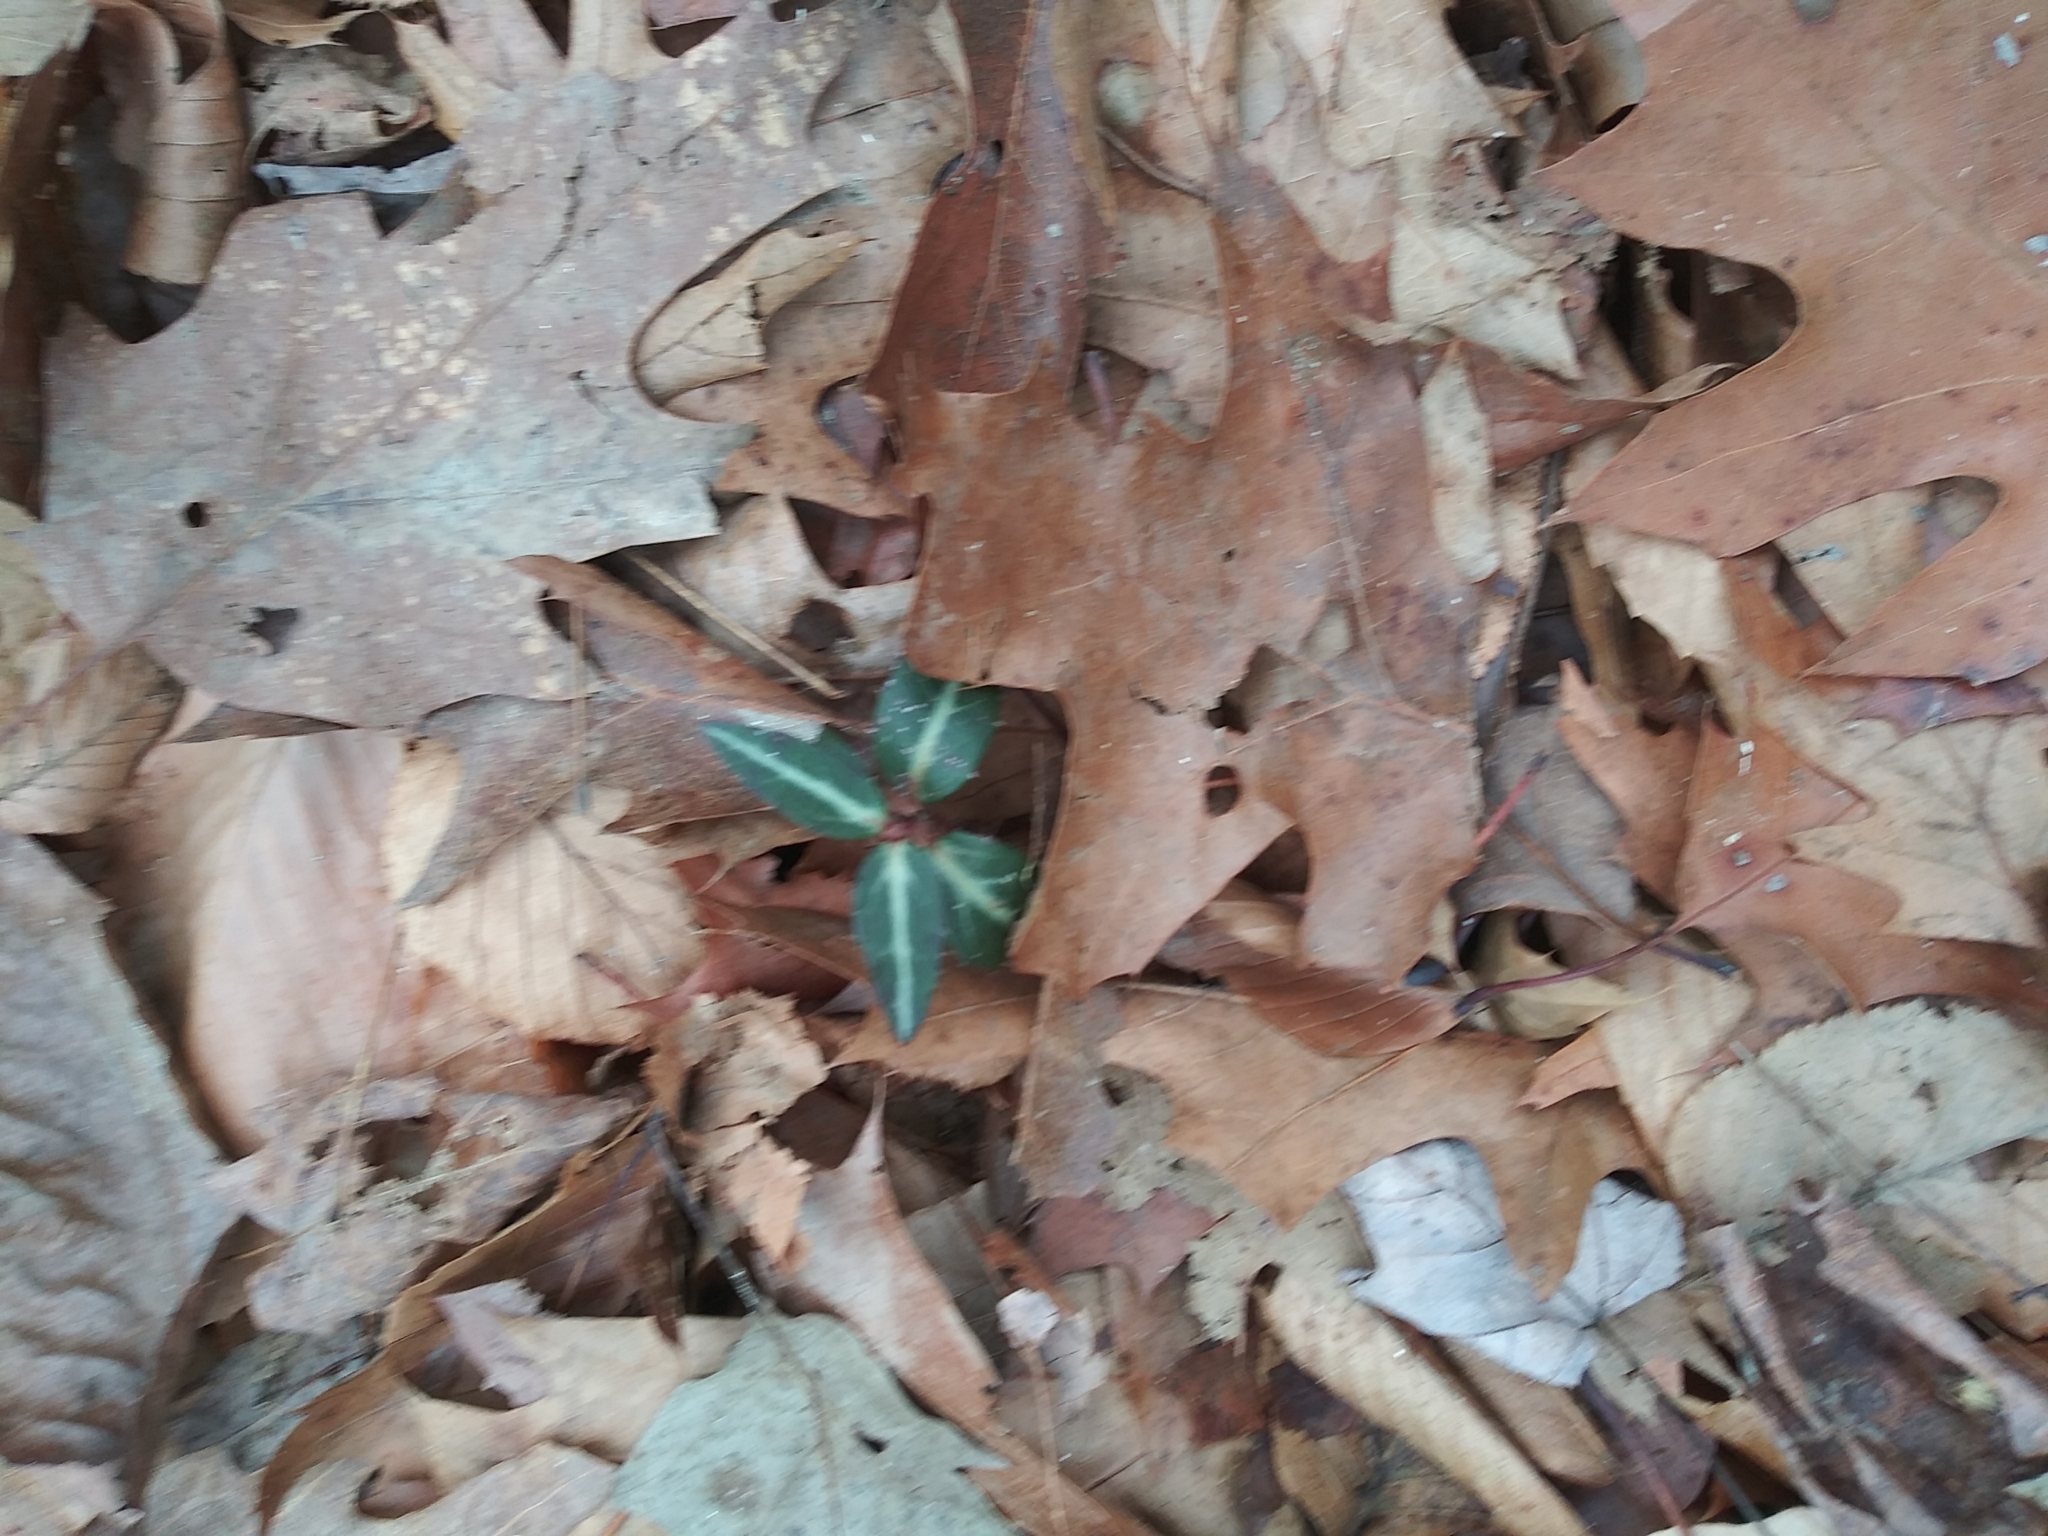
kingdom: Plantae
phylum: Tracheophyta
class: Magnoliopsida
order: Ericales
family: Ericaceae
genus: Chimaphila
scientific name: Chimaphila maculata
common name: Spotted pipsissewa
